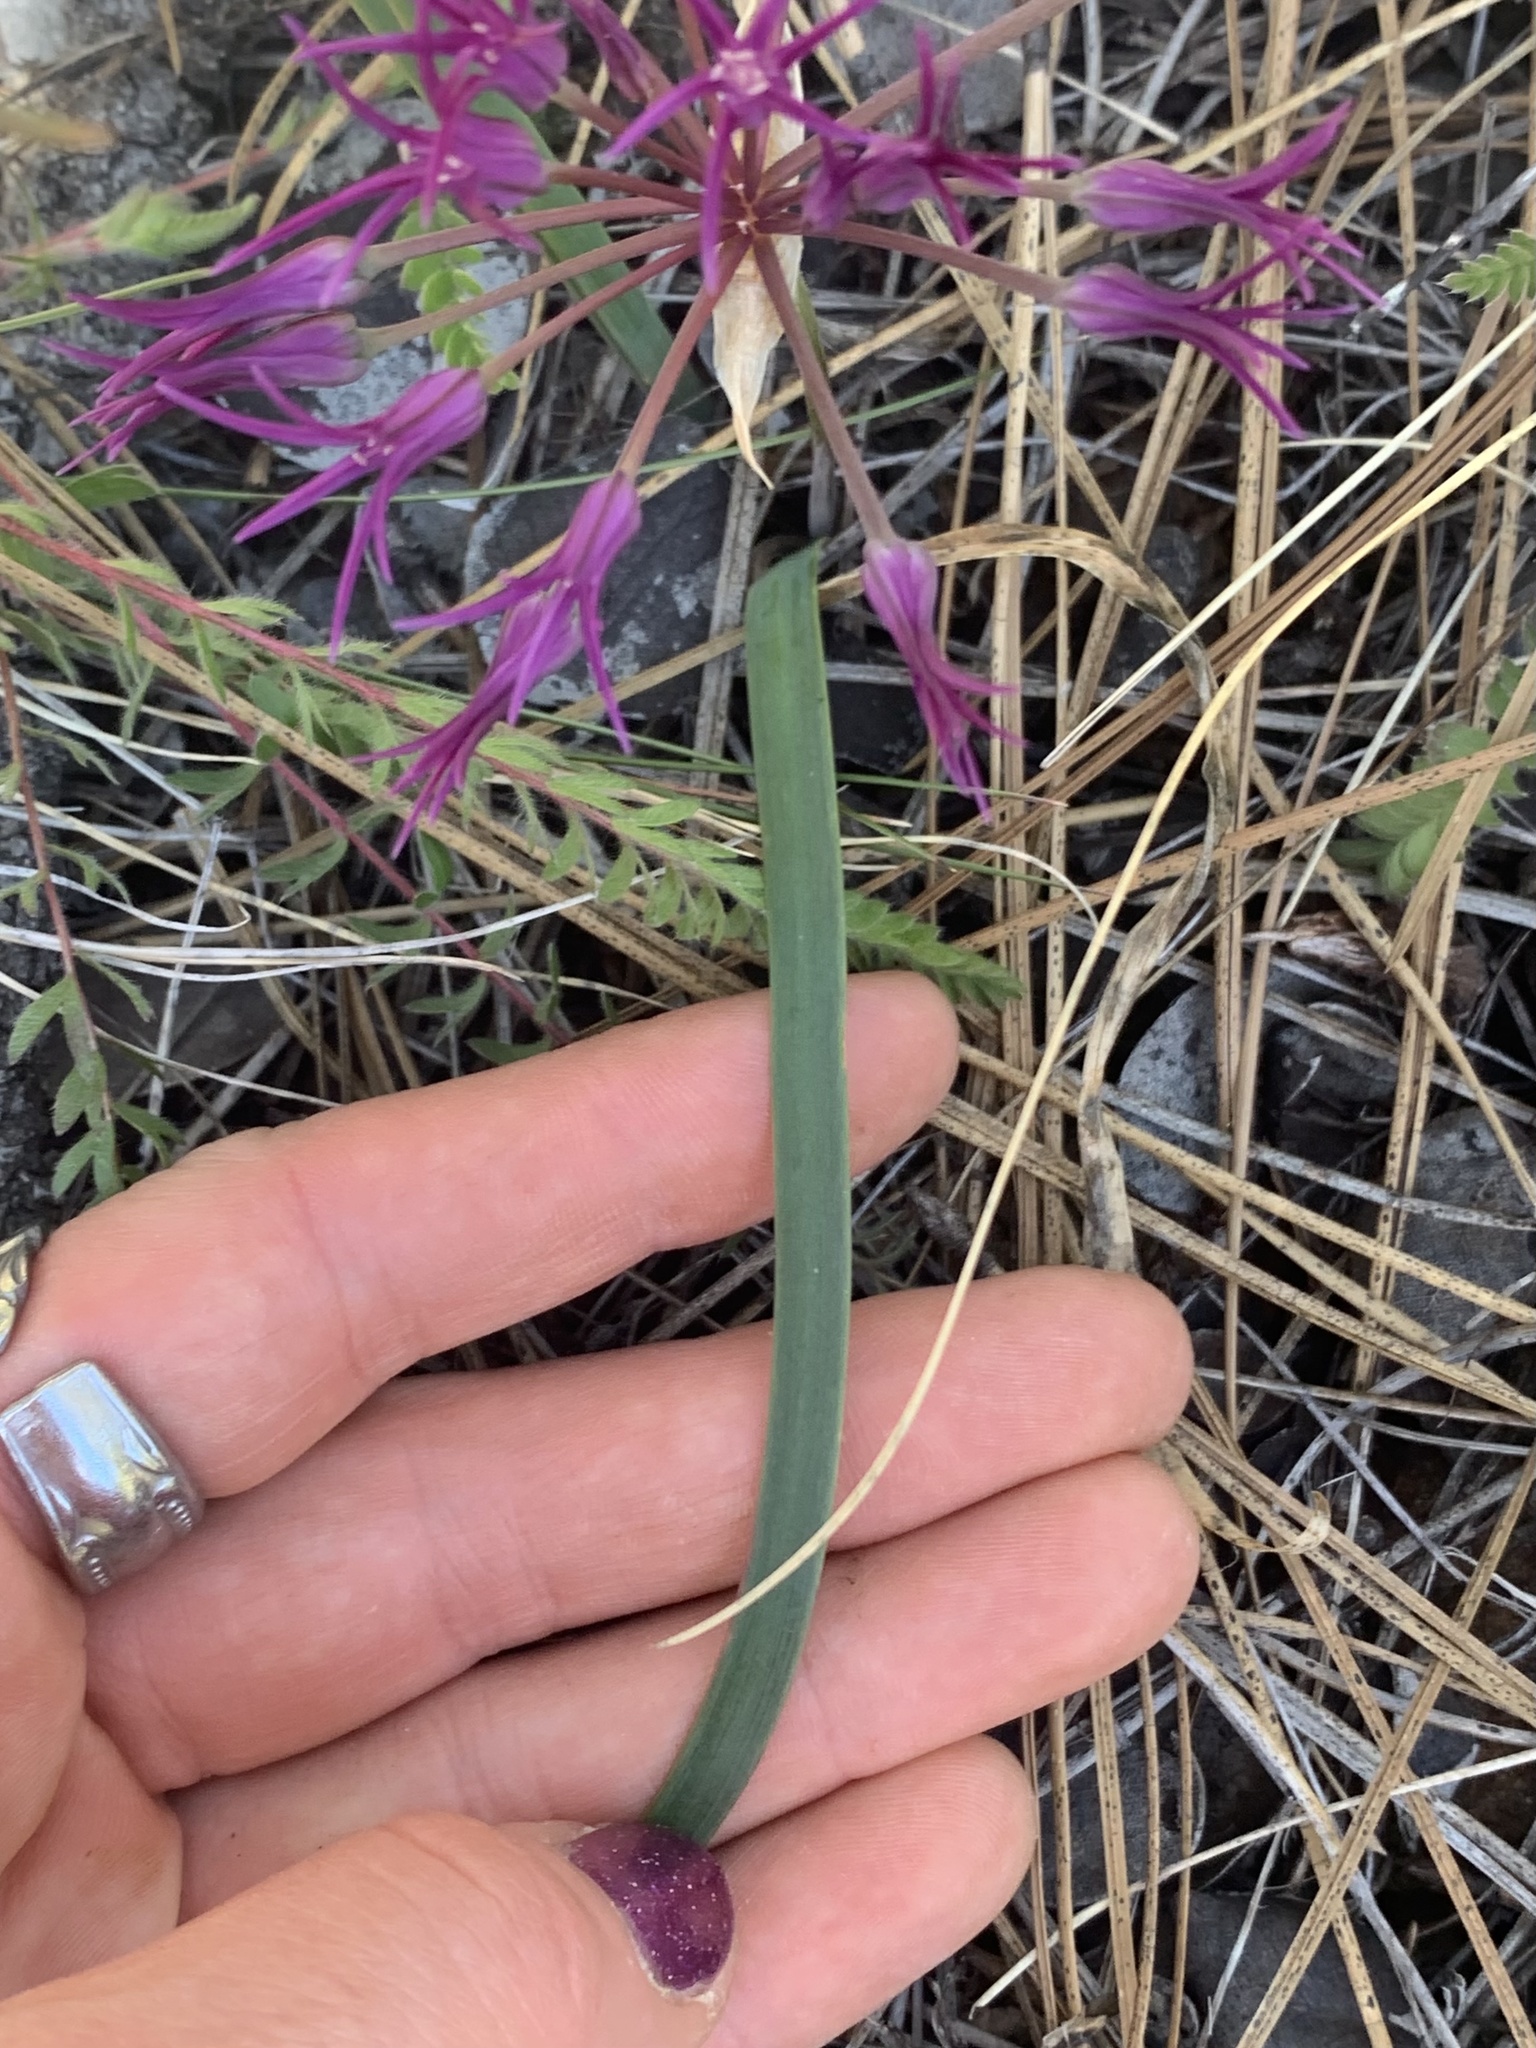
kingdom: Plantae
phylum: Tracheophyta
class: Liliopsida
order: Asparagales
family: Amaryllidaceae
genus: Allium
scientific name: Allium falcifolium
